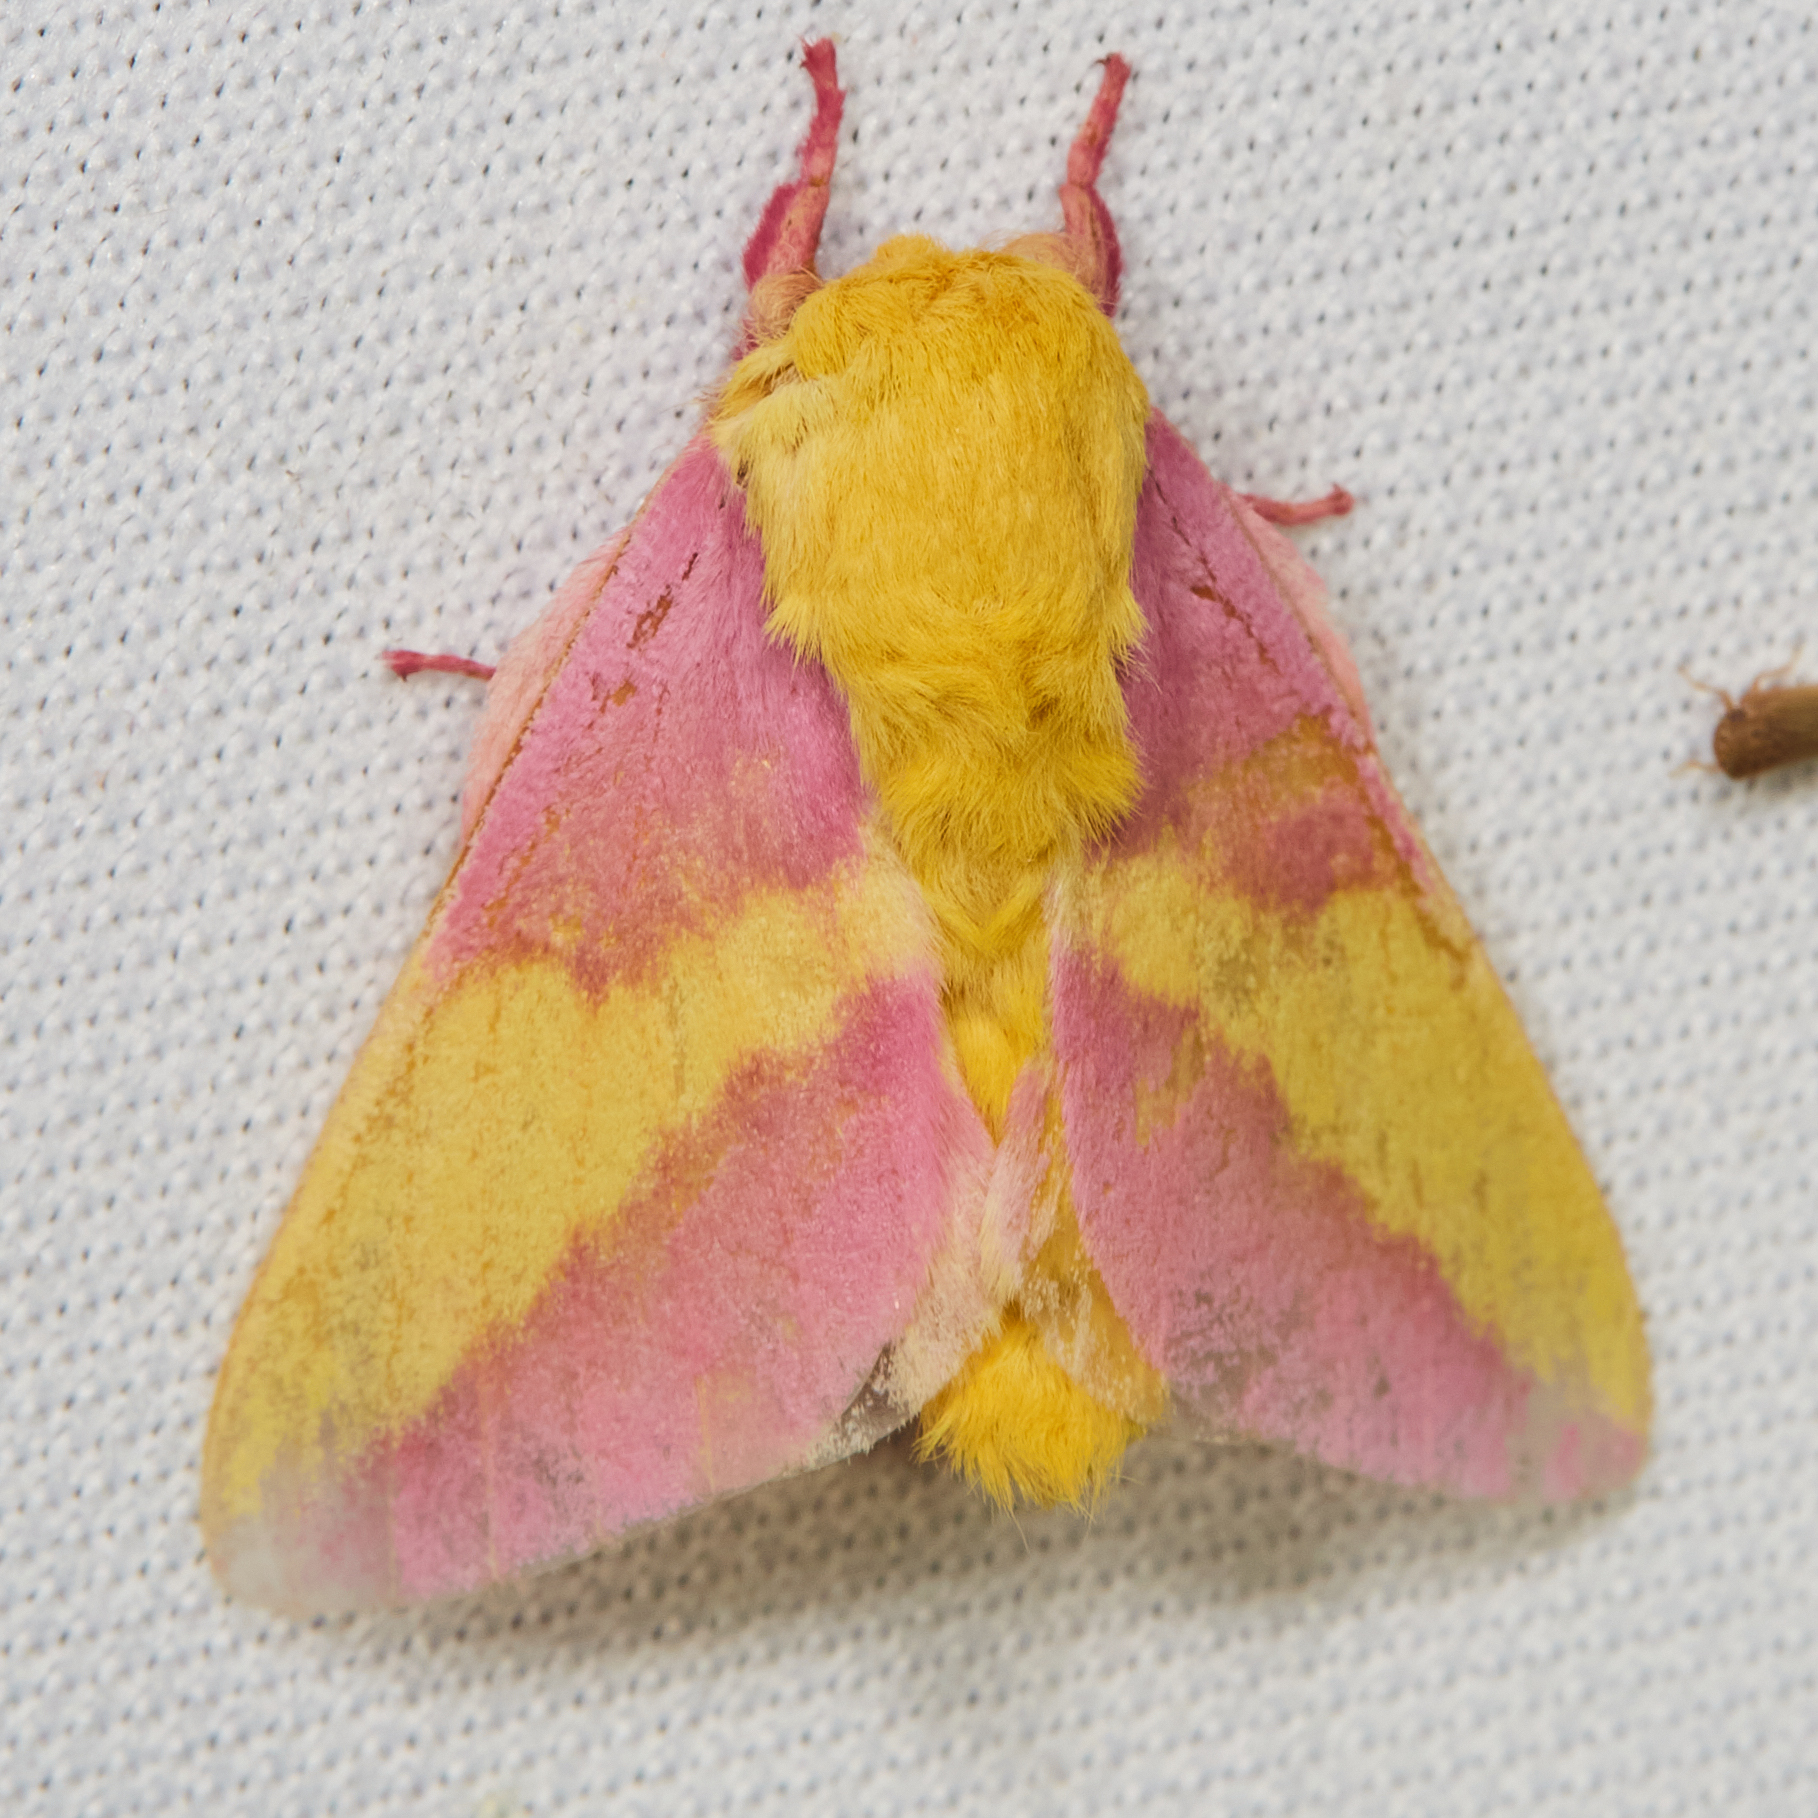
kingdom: Animalia
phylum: Arthropoda
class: Insecta
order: Lepidoptera
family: Saturniidae
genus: Dryocampa
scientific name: Dryocampa rubicunda
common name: Rosy maple moth
